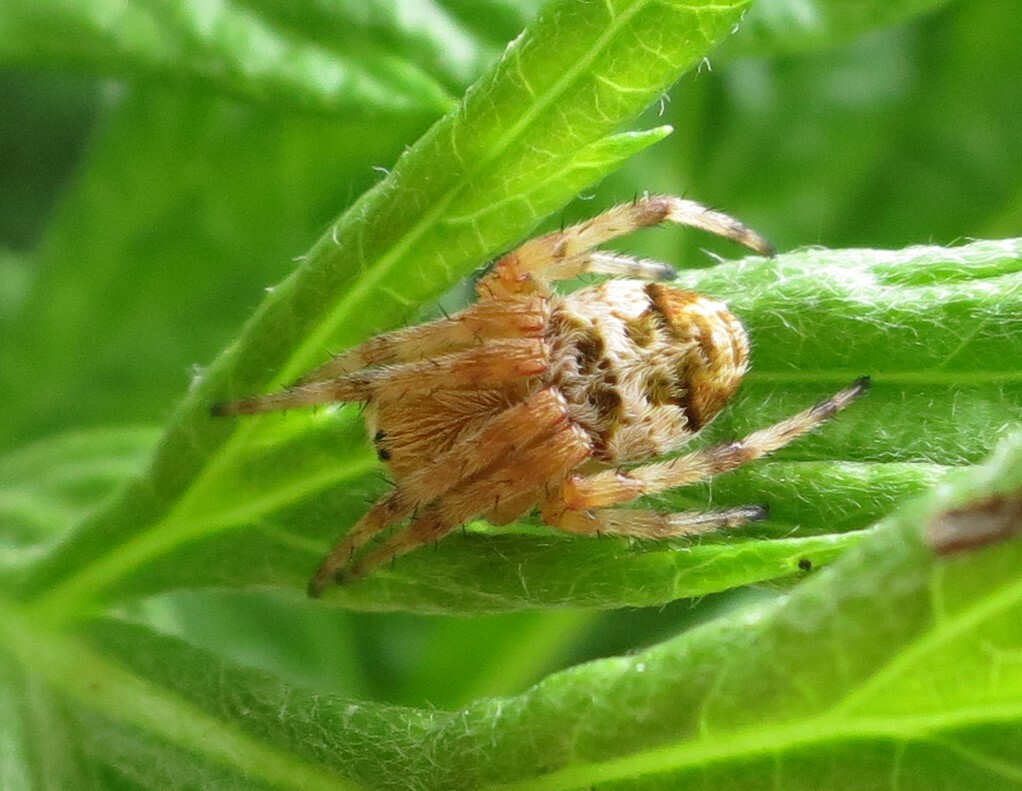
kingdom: Animalia
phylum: Arthropoda
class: Arachnida
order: Araneae
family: Araneidae
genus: Salsa
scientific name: Salsa fuliginata
